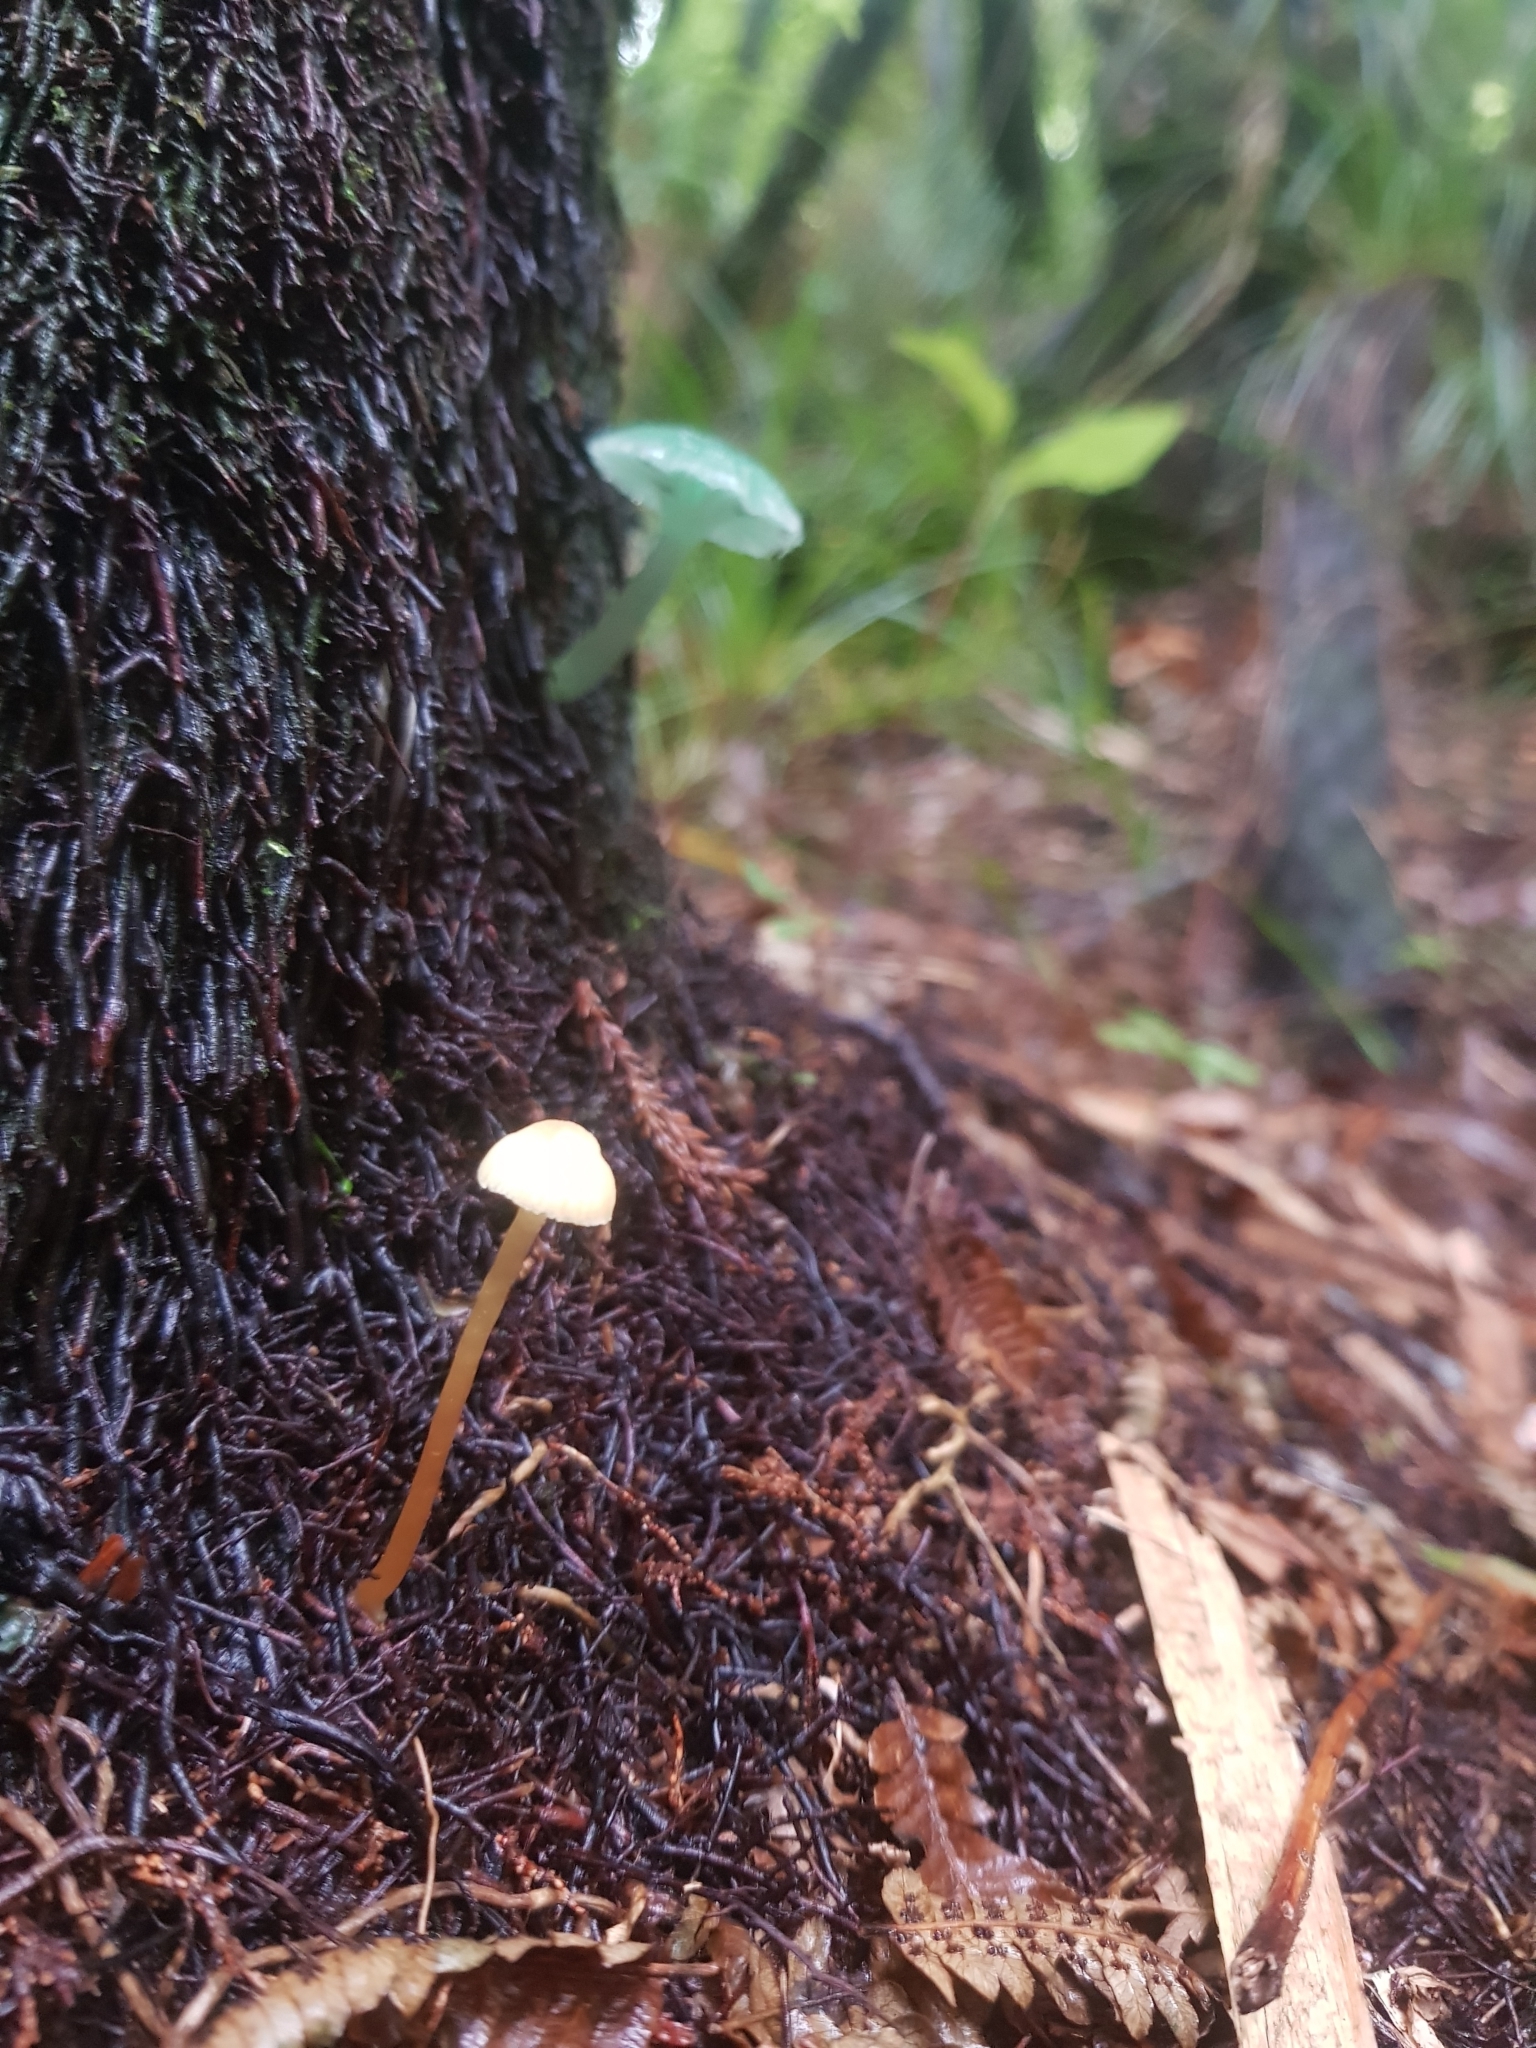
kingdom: Fungi
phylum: Basidiomycota
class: Agaricomycetes
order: Agaricales
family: Hygrophoraceae
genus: Gliophorus
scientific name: Gliophorus graminicolor
